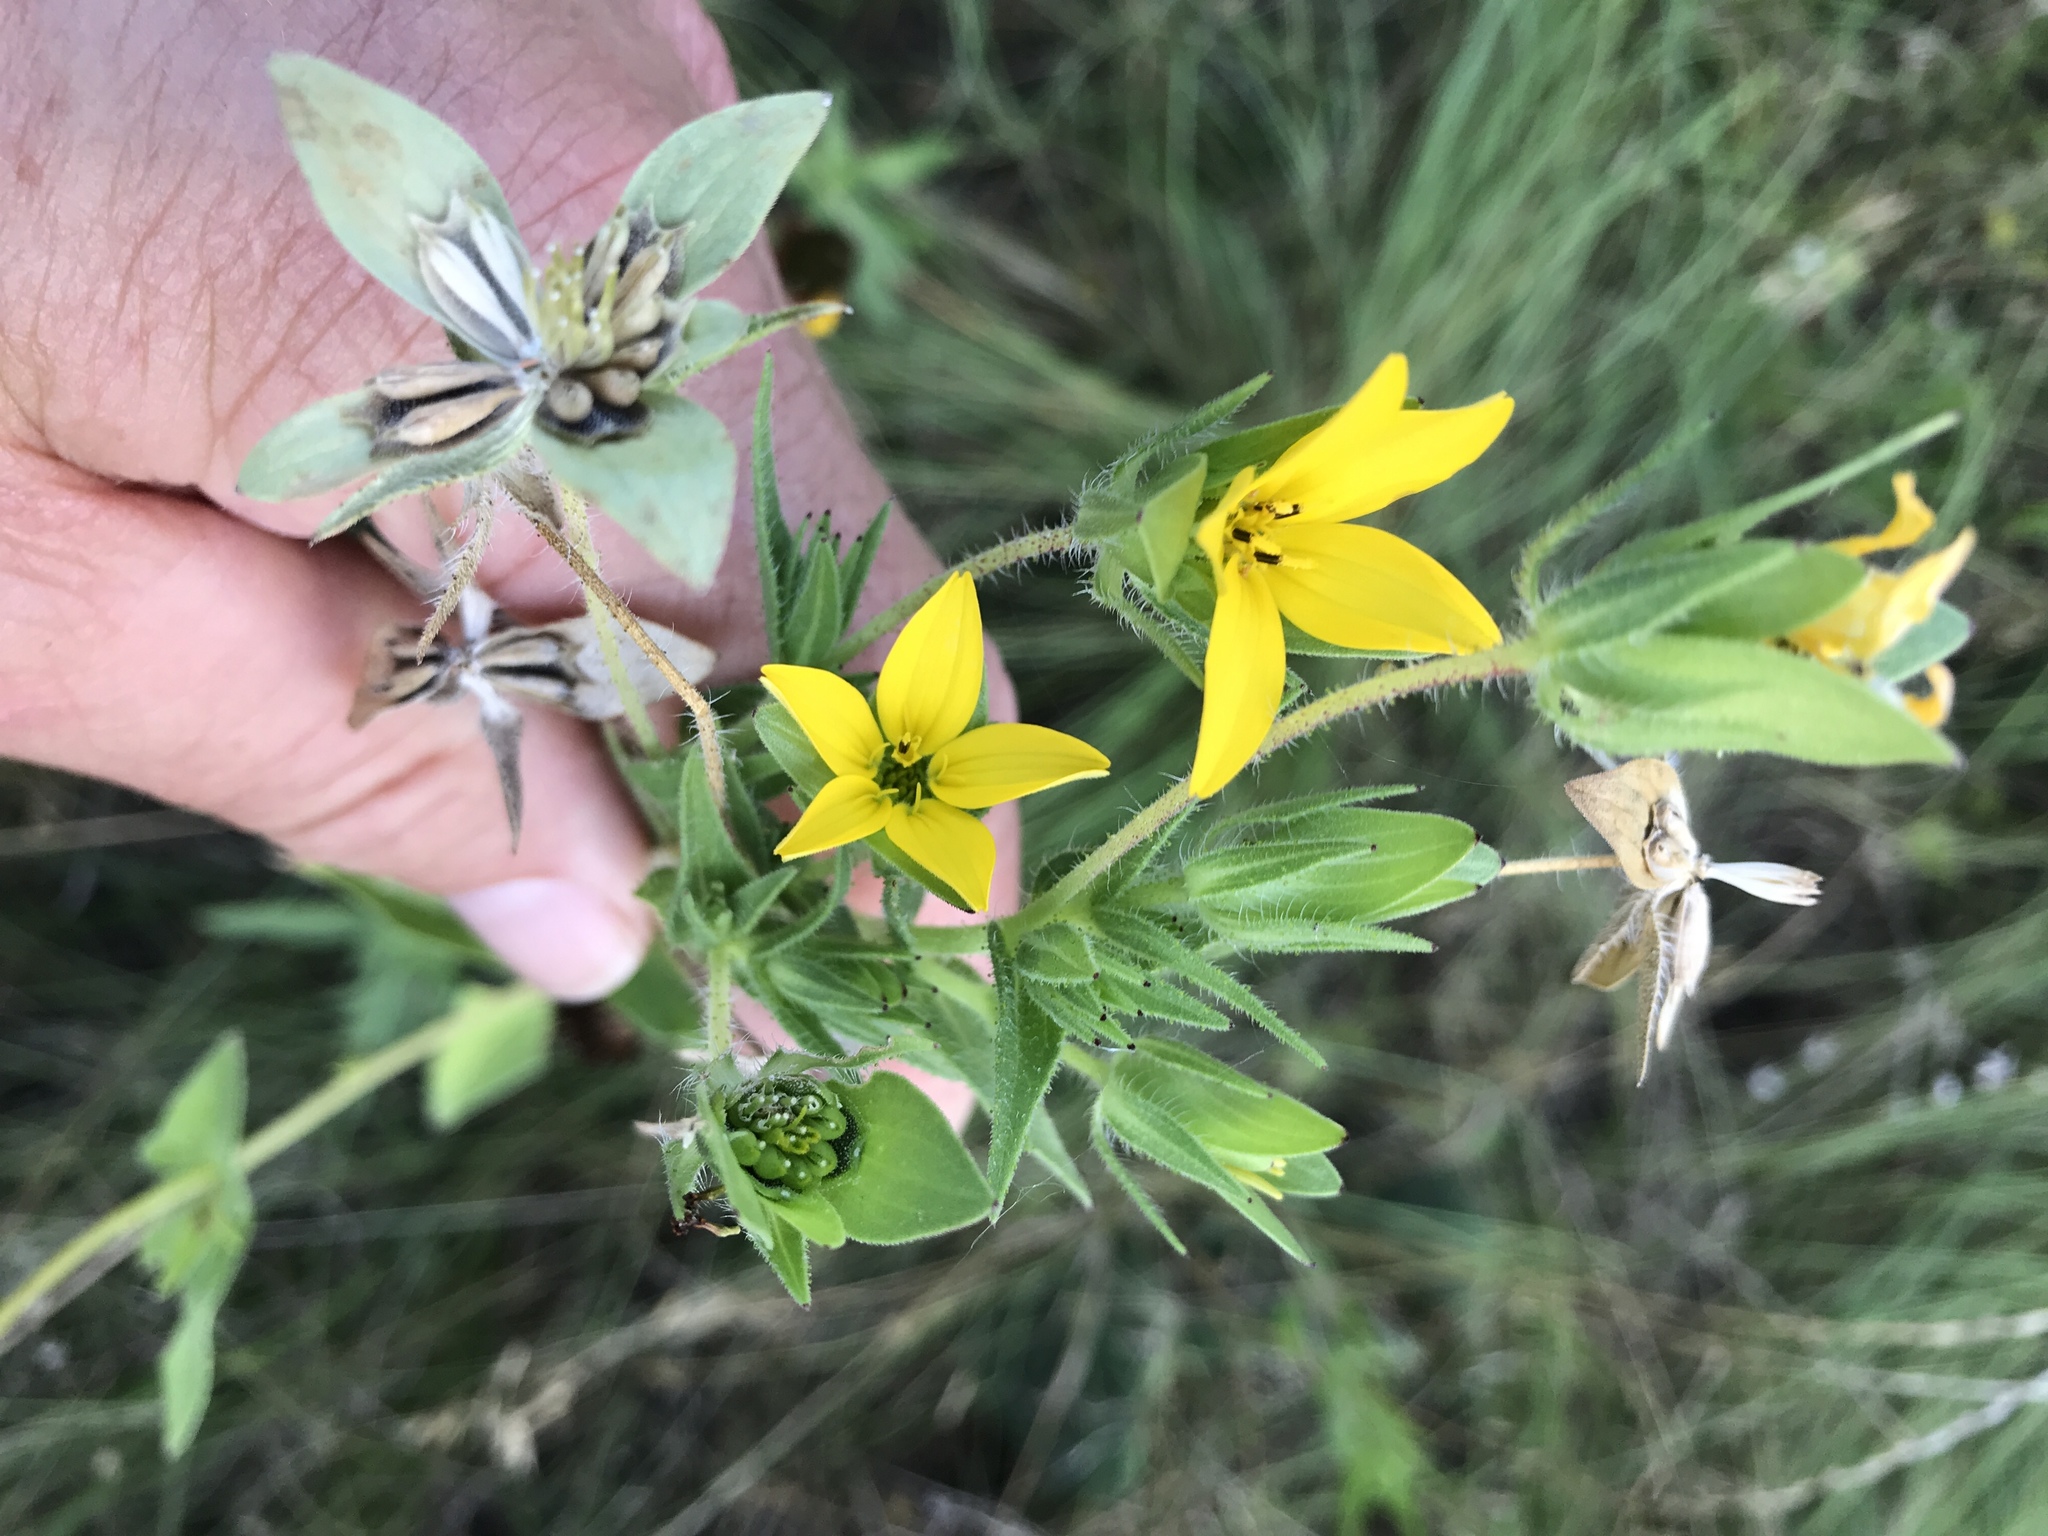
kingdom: Plantae
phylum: Tracheophyta
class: Magnoliopsida
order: Asterales
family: Asteraceae
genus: Lindheimera
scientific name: Lindheimera texana
